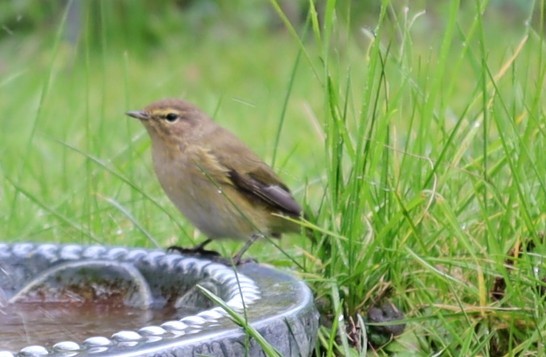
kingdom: Animalia
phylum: Chordata
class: Aves
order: Passeriformes
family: Phylloscopidae
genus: Phylloscopus
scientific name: Phylloscopus collybita
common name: Common chiffchaff
